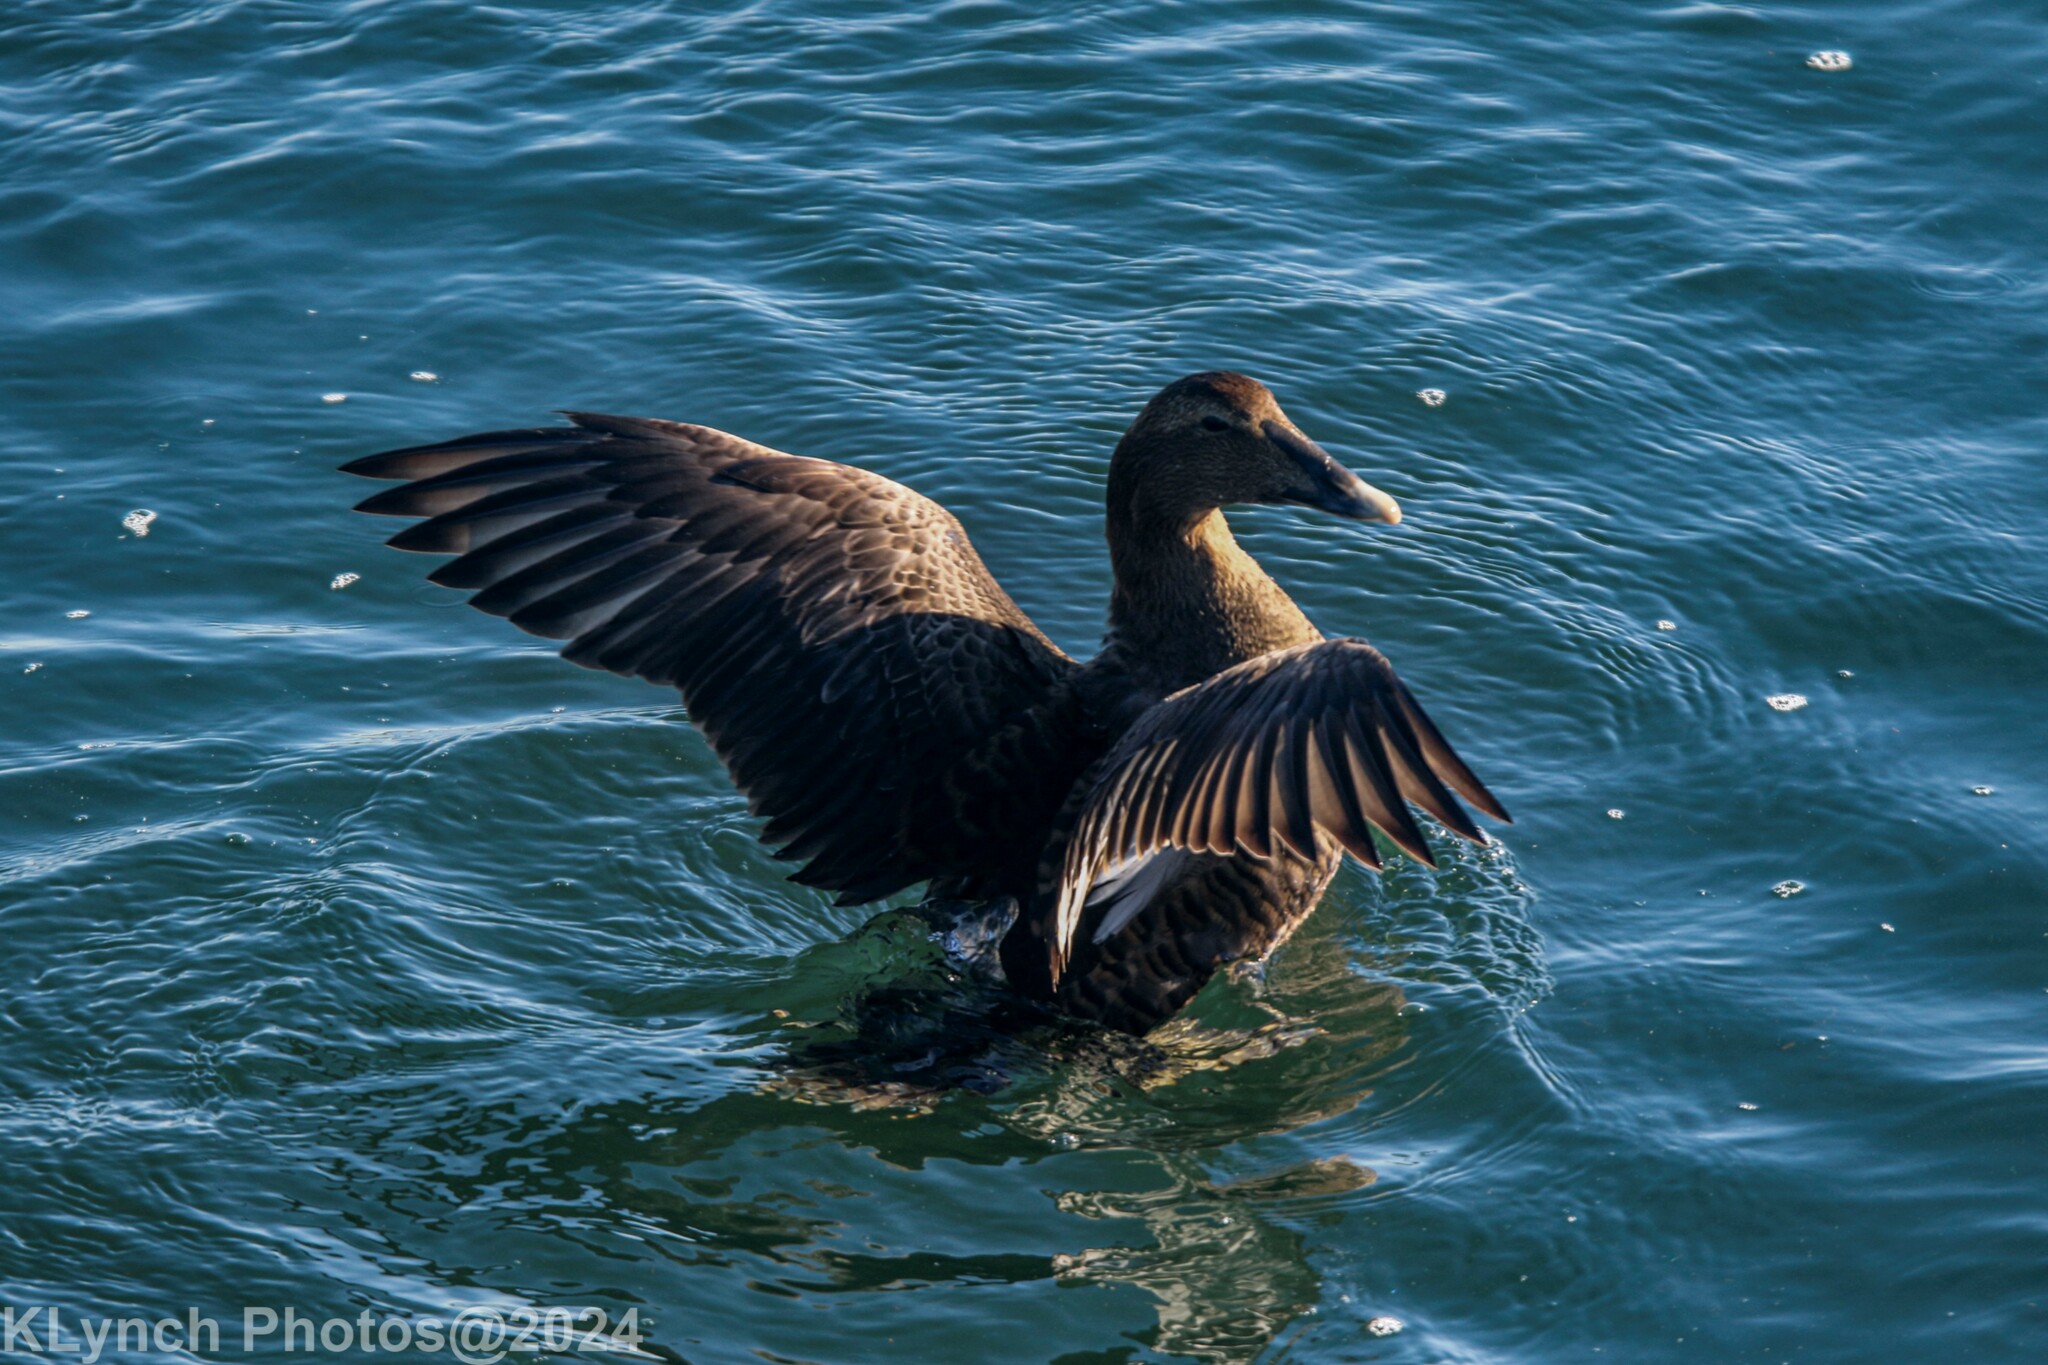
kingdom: Animalia
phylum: Chordata
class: Aves
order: Anseriformes
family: Anatidae
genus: Somateria
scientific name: Somateria mollissima
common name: Common eider
